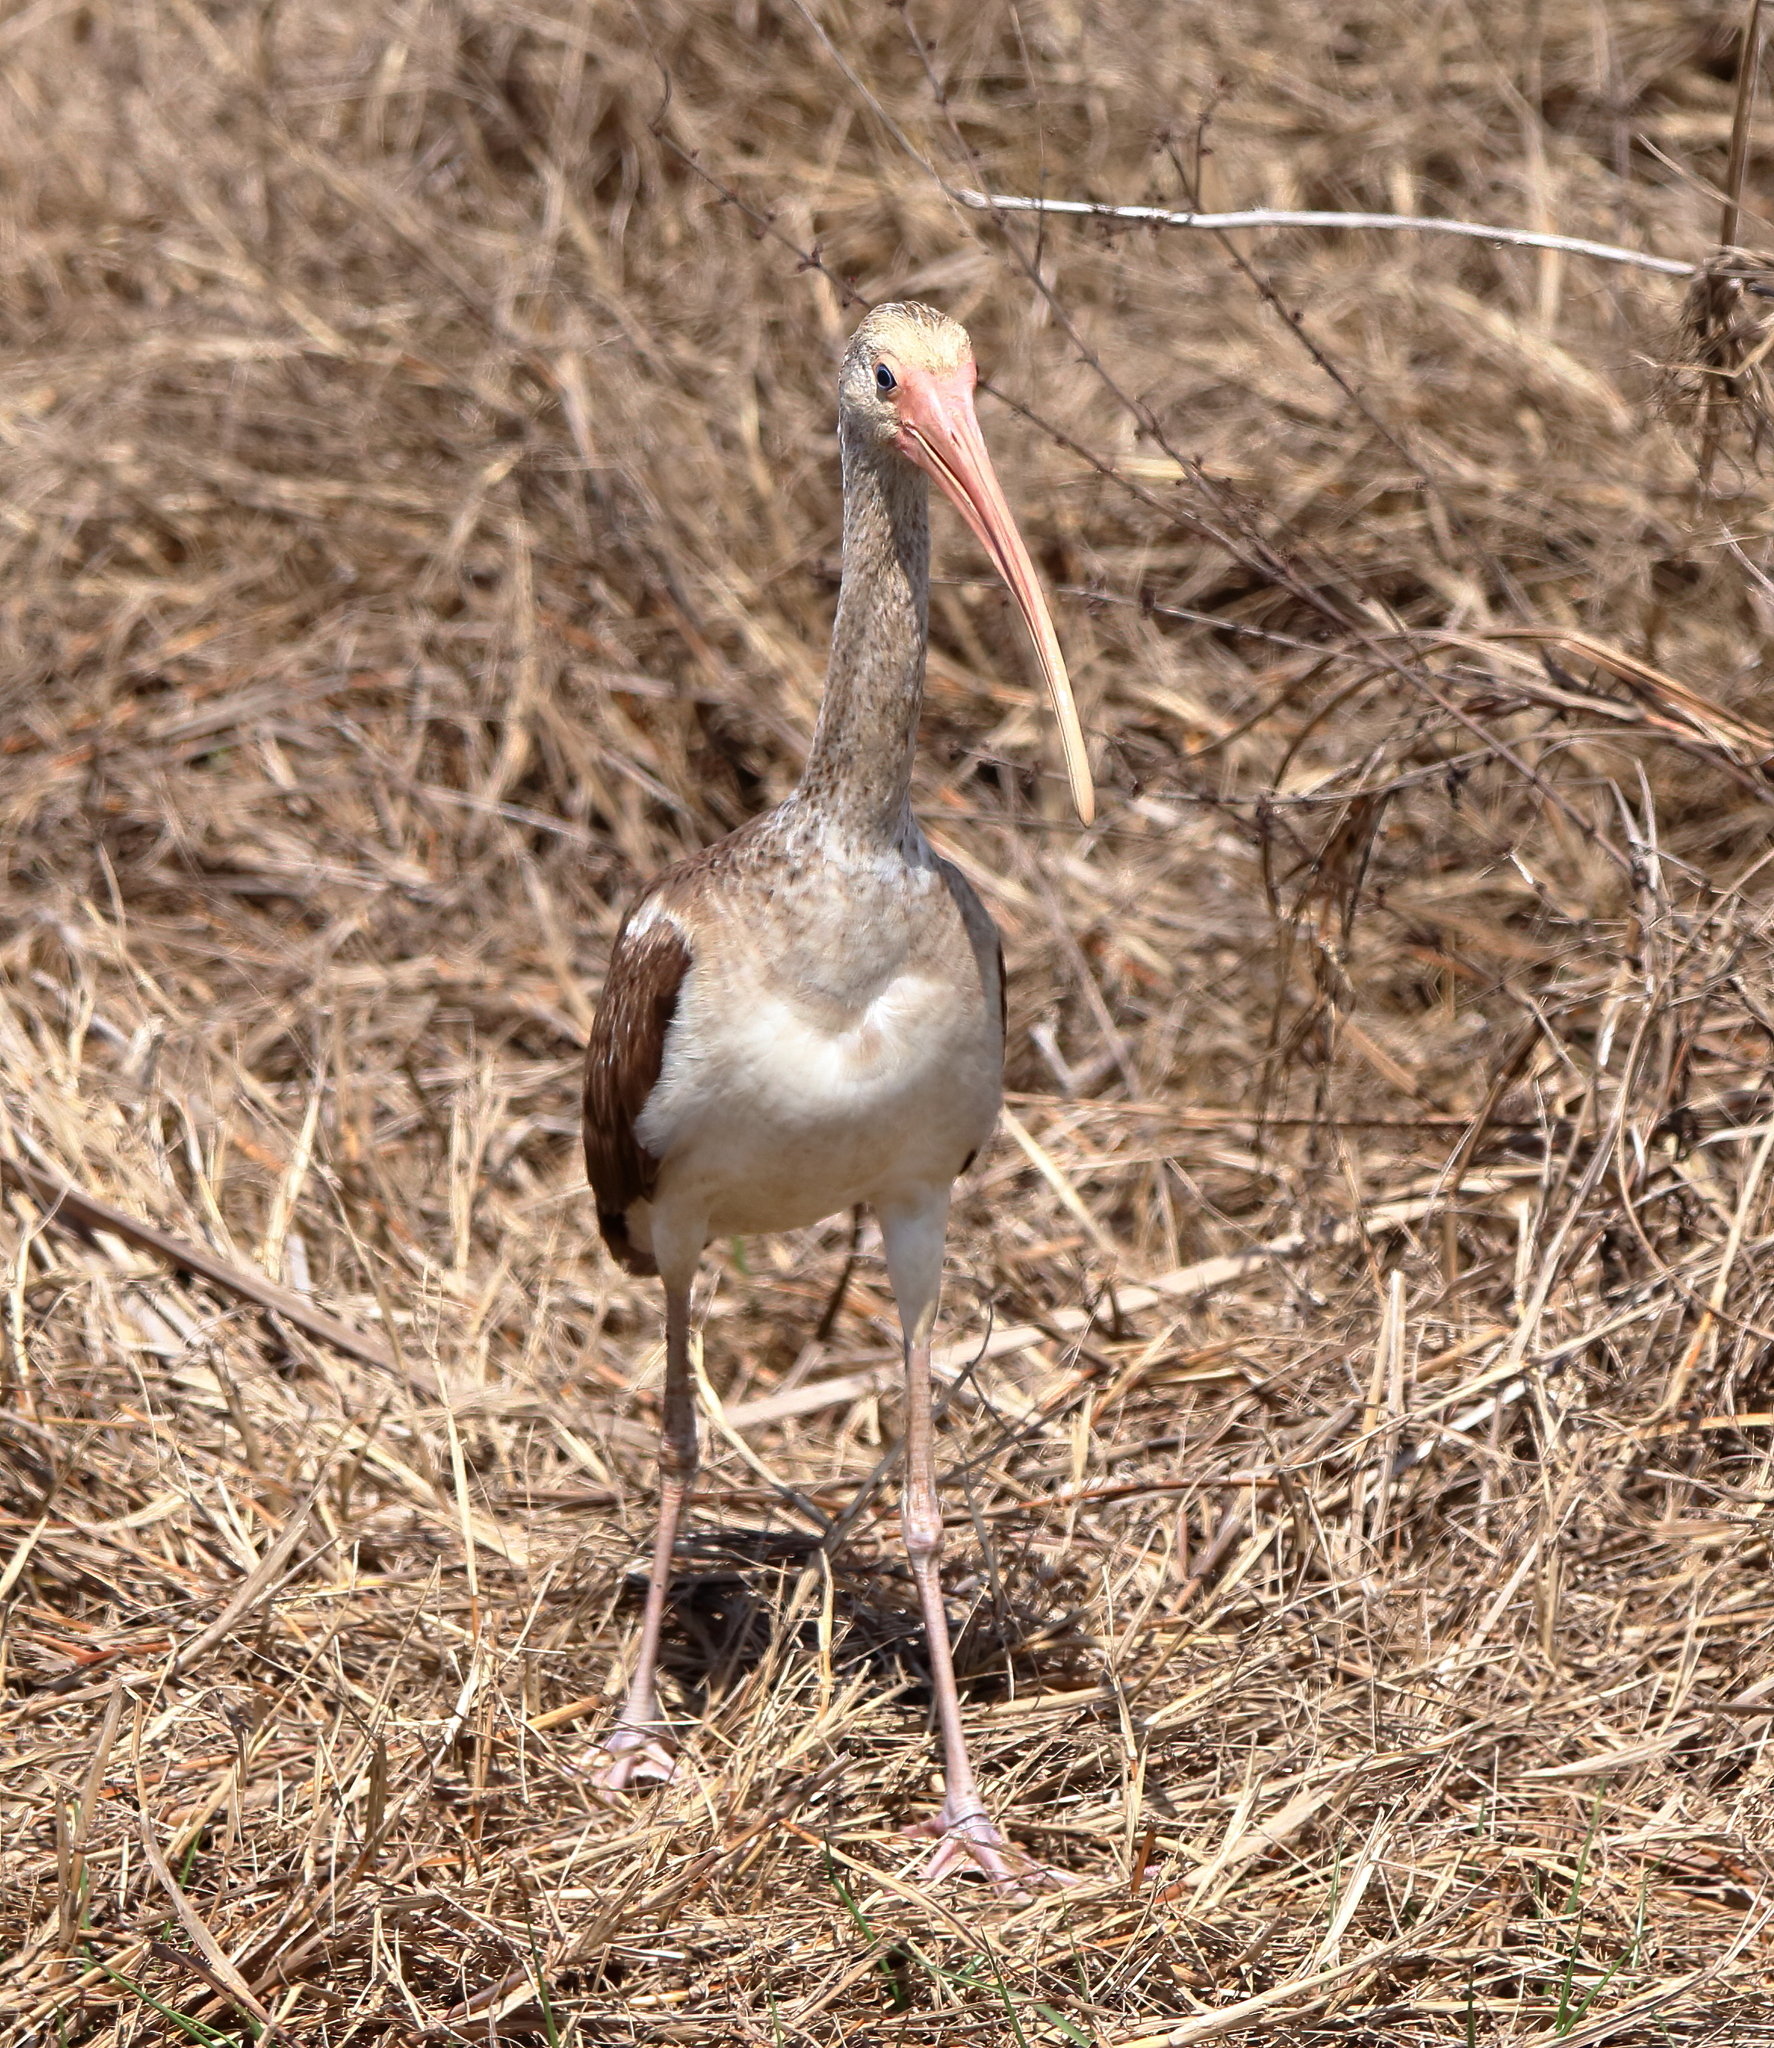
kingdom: Animalia
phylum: Chordata
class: Aves
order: Pelecaniformes
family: Threskiornithidae
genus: Eudocimus
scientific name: Eudocimus albus
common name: White ibis
